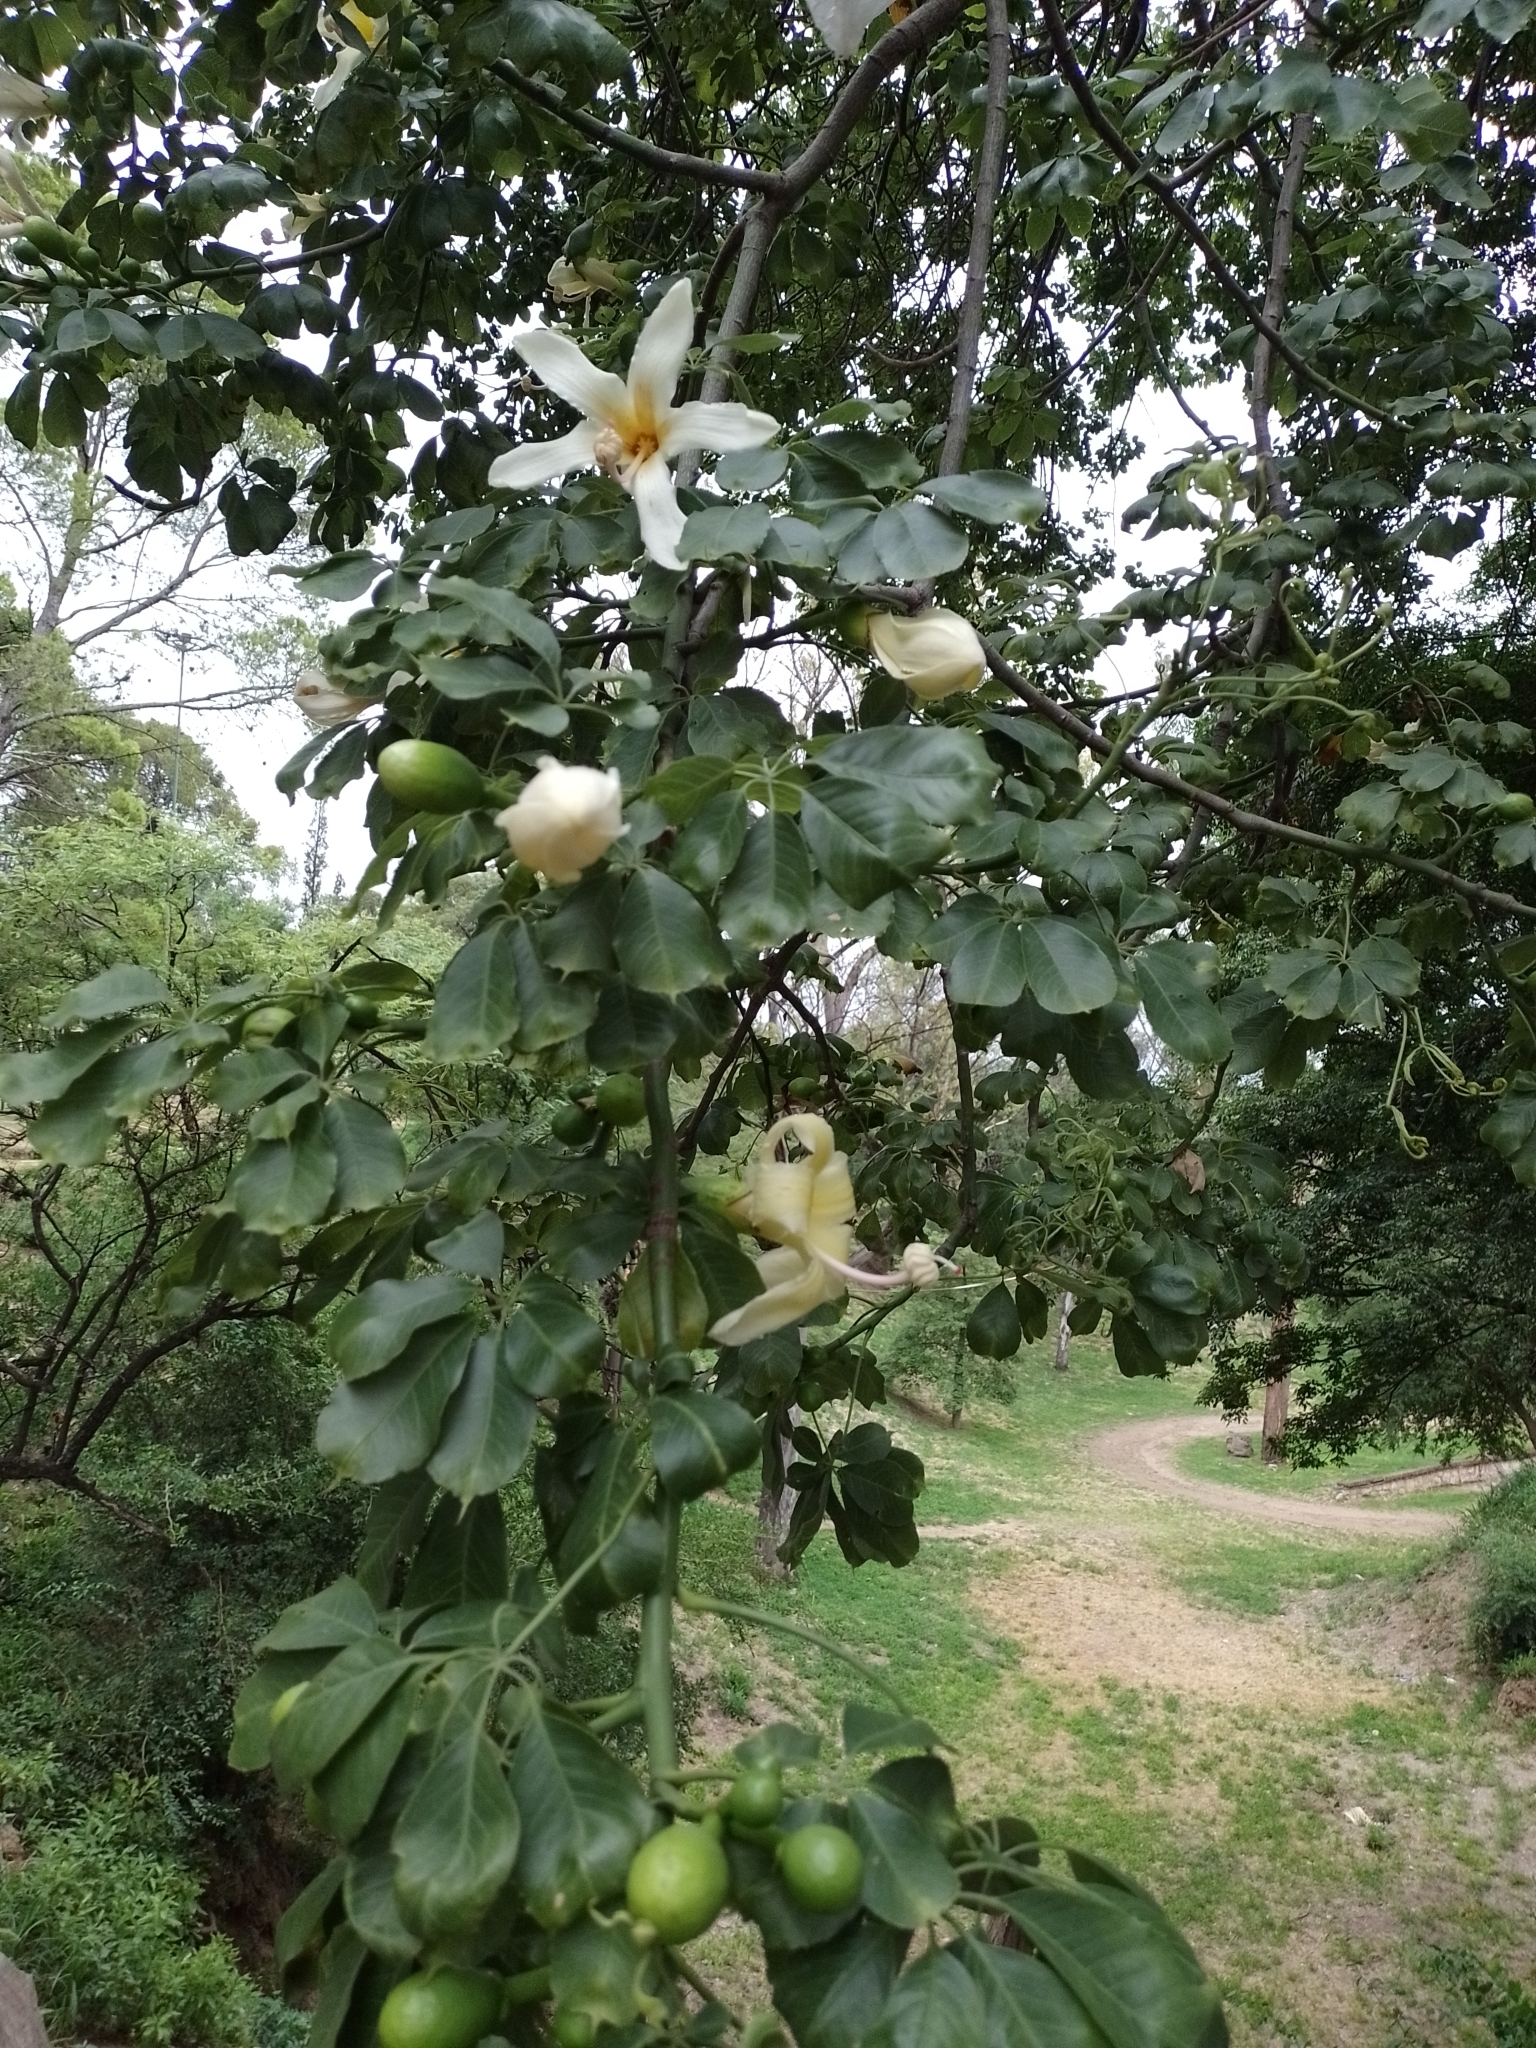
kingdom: Plantae
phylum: Tracheophyta
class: Magnoliopsida
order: Malvales
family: Malvaceae
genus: Ceiba
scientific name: Ceiba chodatii
